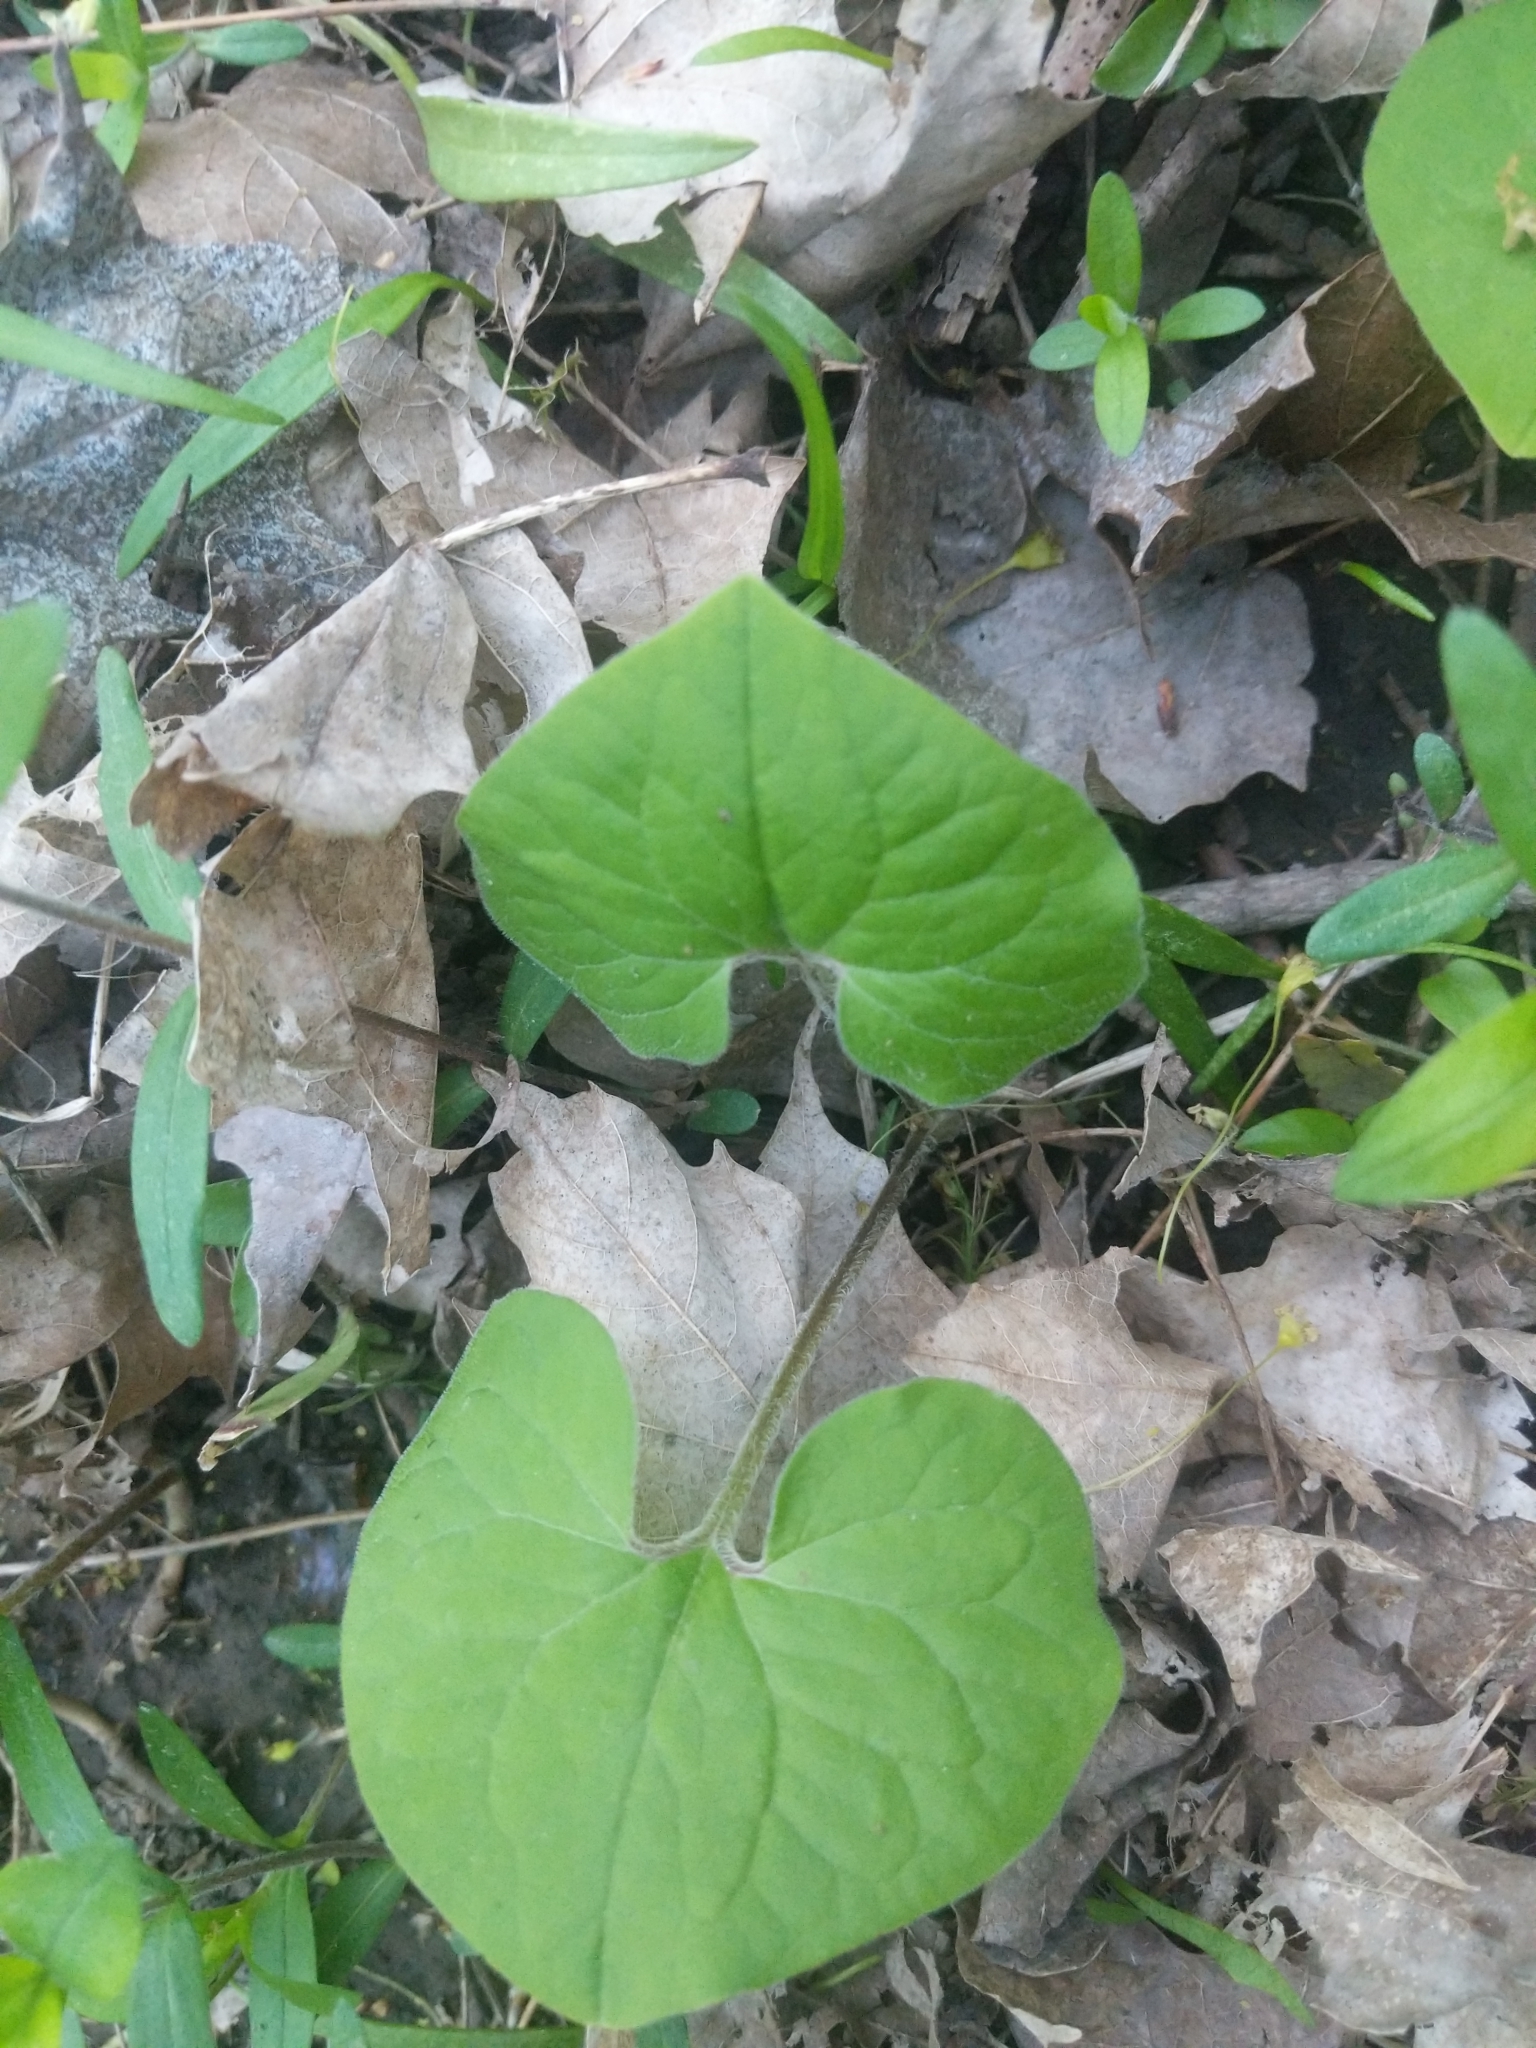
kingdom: Plantae
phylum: Tracheophyta
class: Magnoliopsida
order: Piperales
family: Aristolochiaceae
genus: Asarum
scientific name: Asarum canadense
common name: Wild ginger
